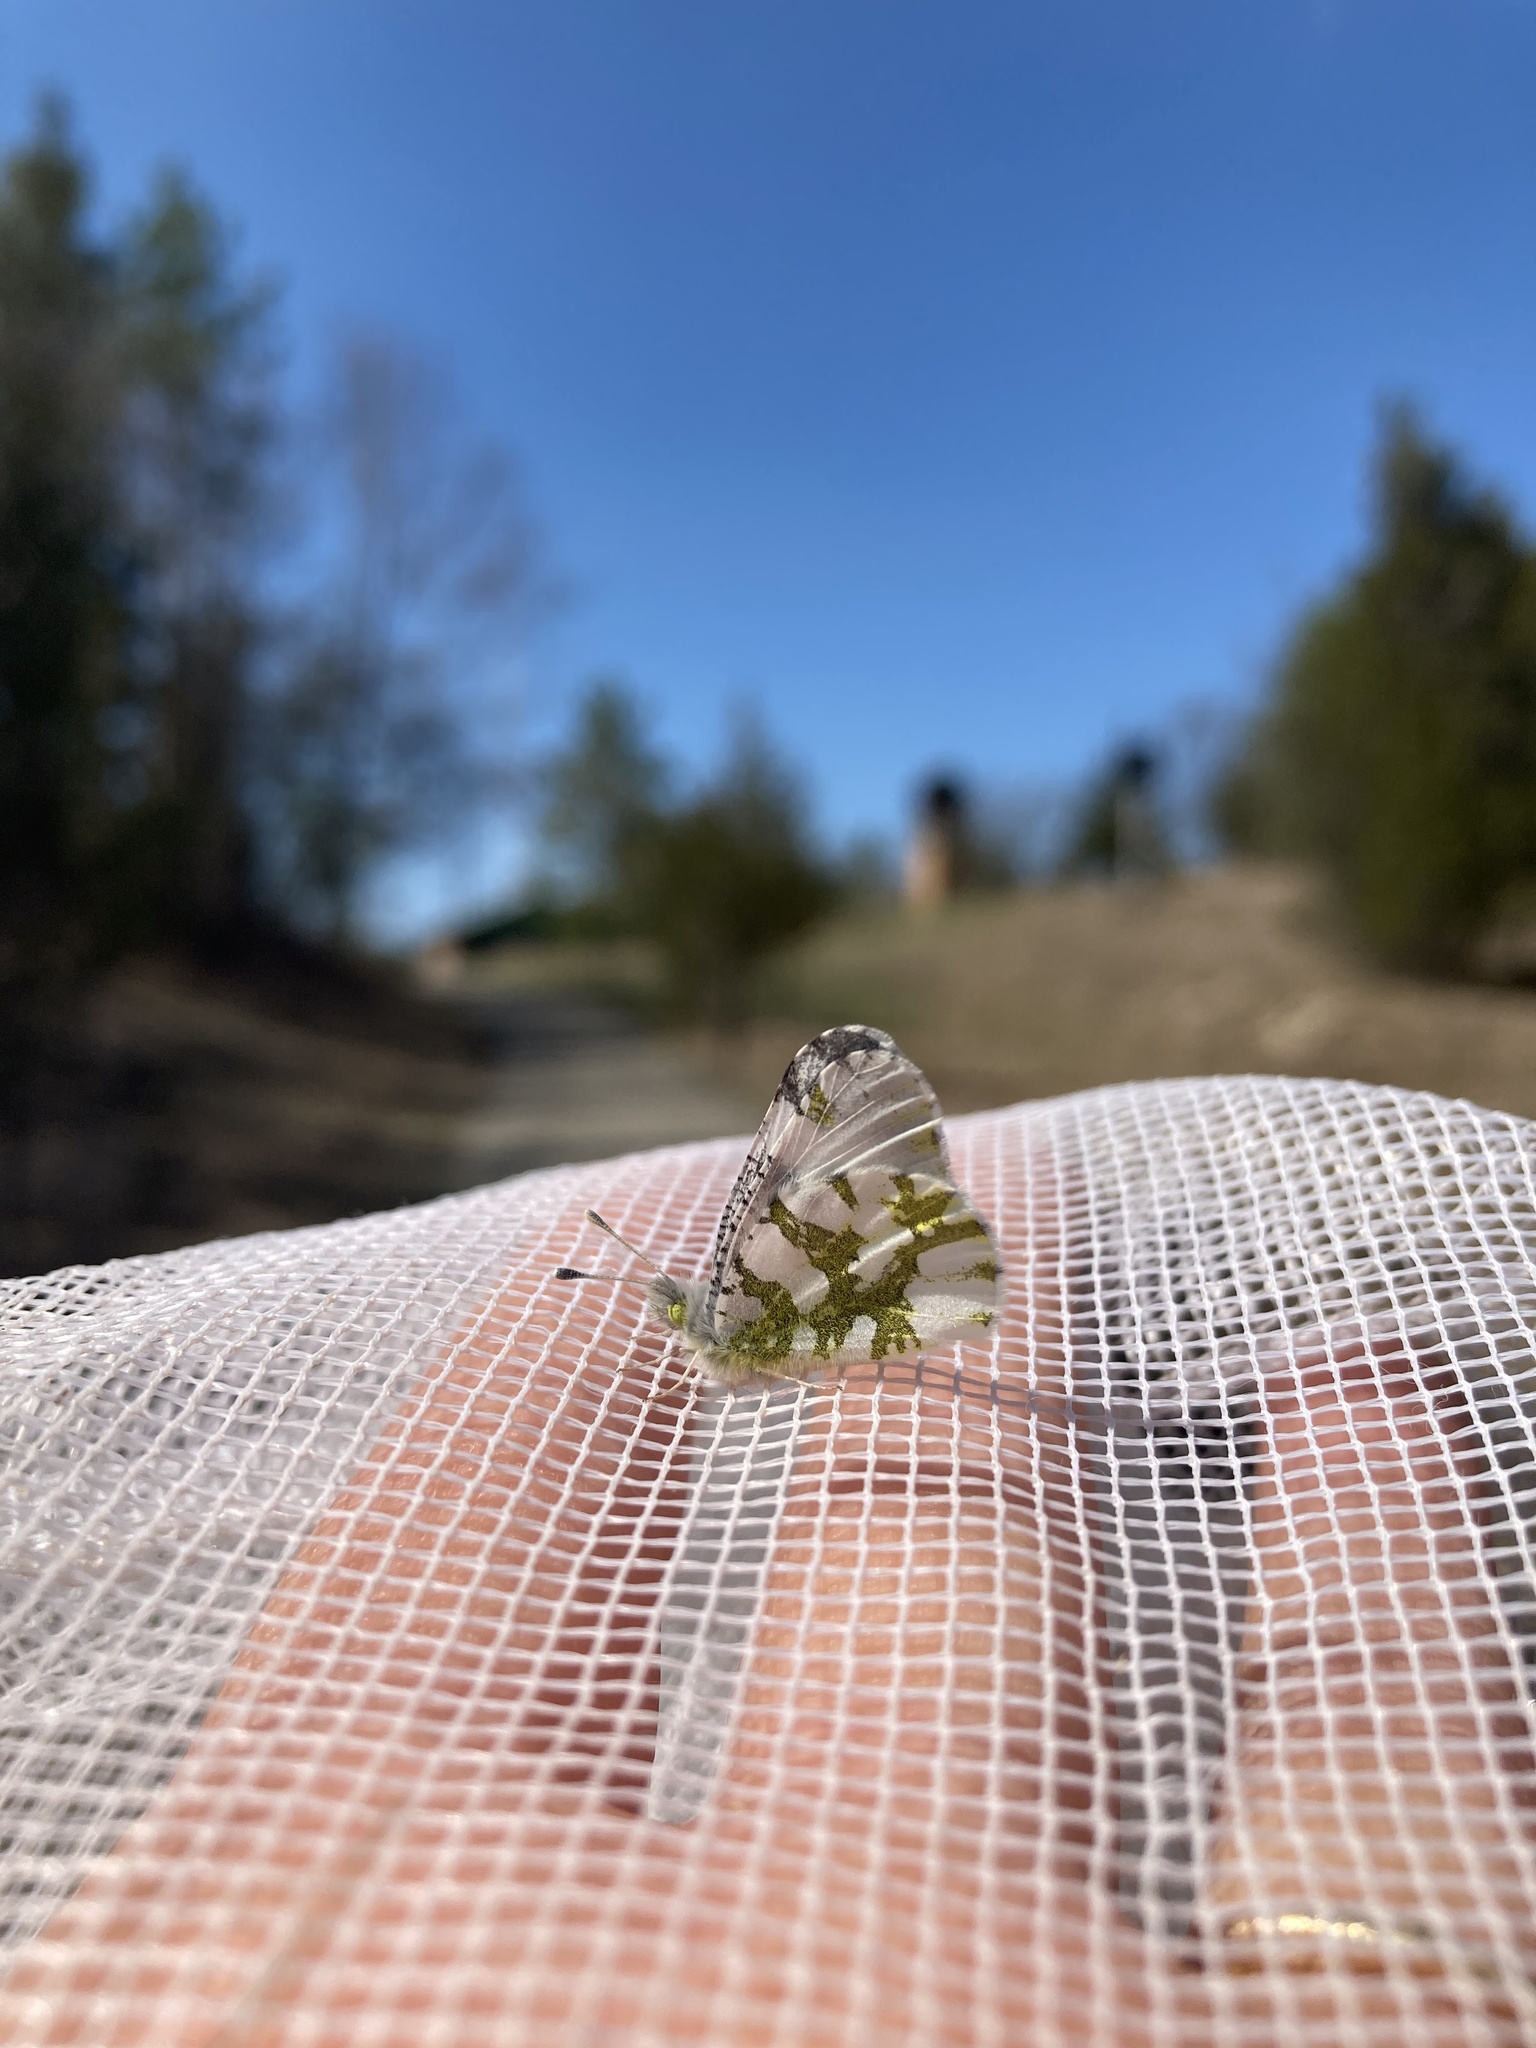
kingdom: Animalia
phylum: Arthropoda
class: Insecta
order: Lepidoptera
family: Pieridae
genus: Euchloe
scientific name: Euchloe olympia
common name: Olympia
